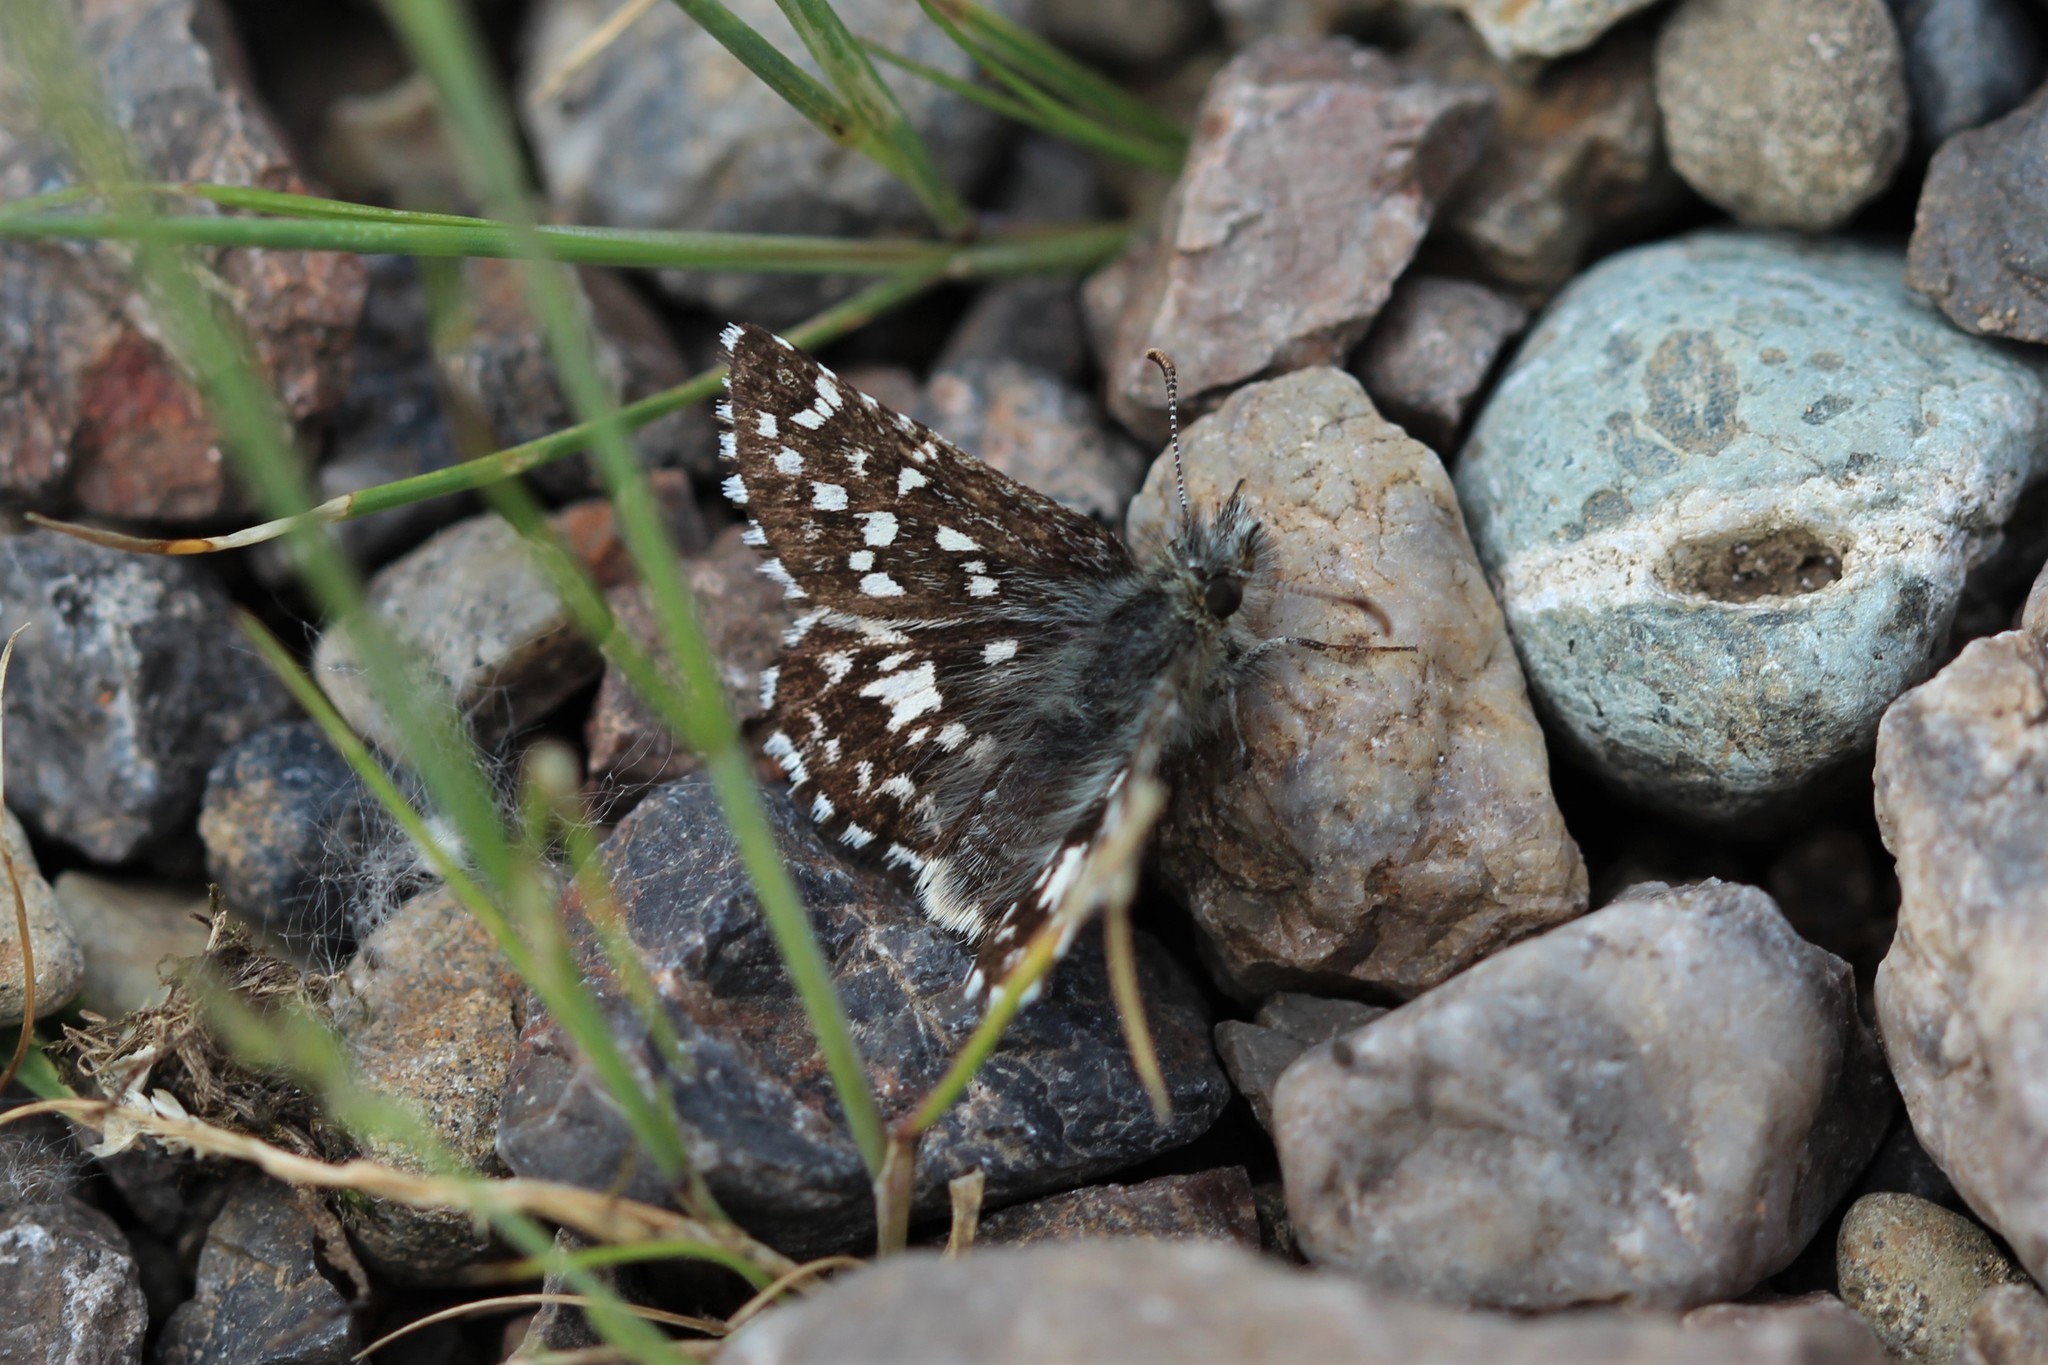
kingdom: Animalia
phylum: Arthropoda
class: Insecta
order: Lepidoptera
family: Hesperiidae
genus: Pyrgus
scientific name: Pyrgus ruralis
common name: Two-banded checkered-skipper
